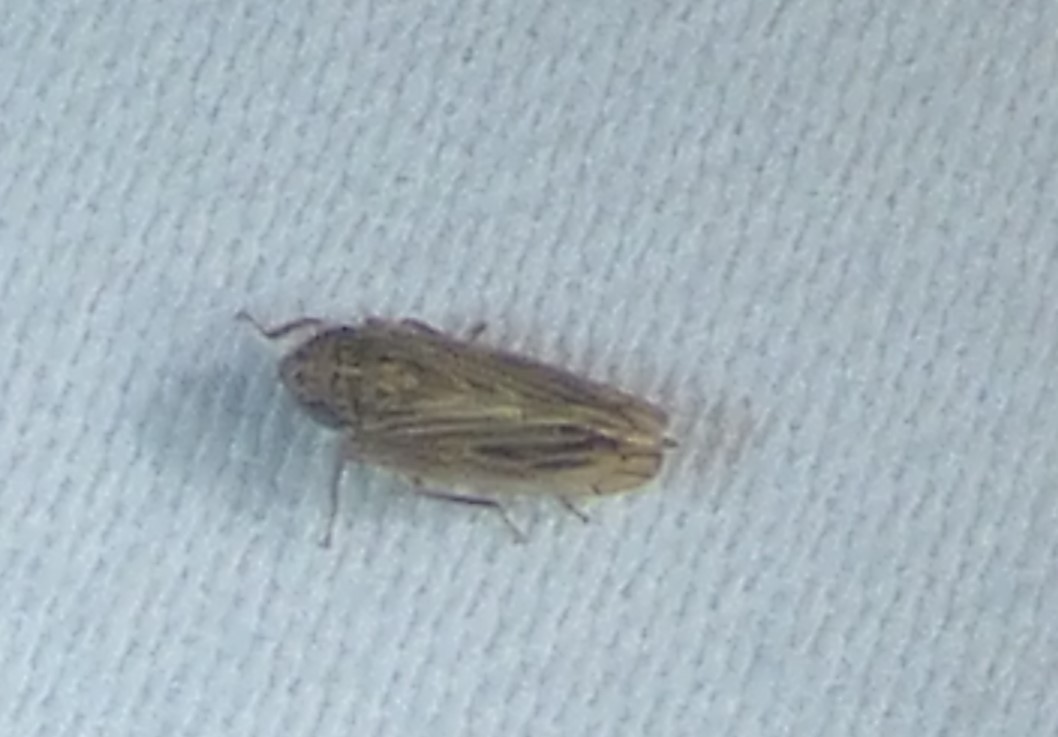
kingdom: Animalia
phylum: Arthropoda
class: Insecta
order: Hemiptera
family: Cicadellidae
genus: Stirellus
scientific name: Stirellus bicolor
